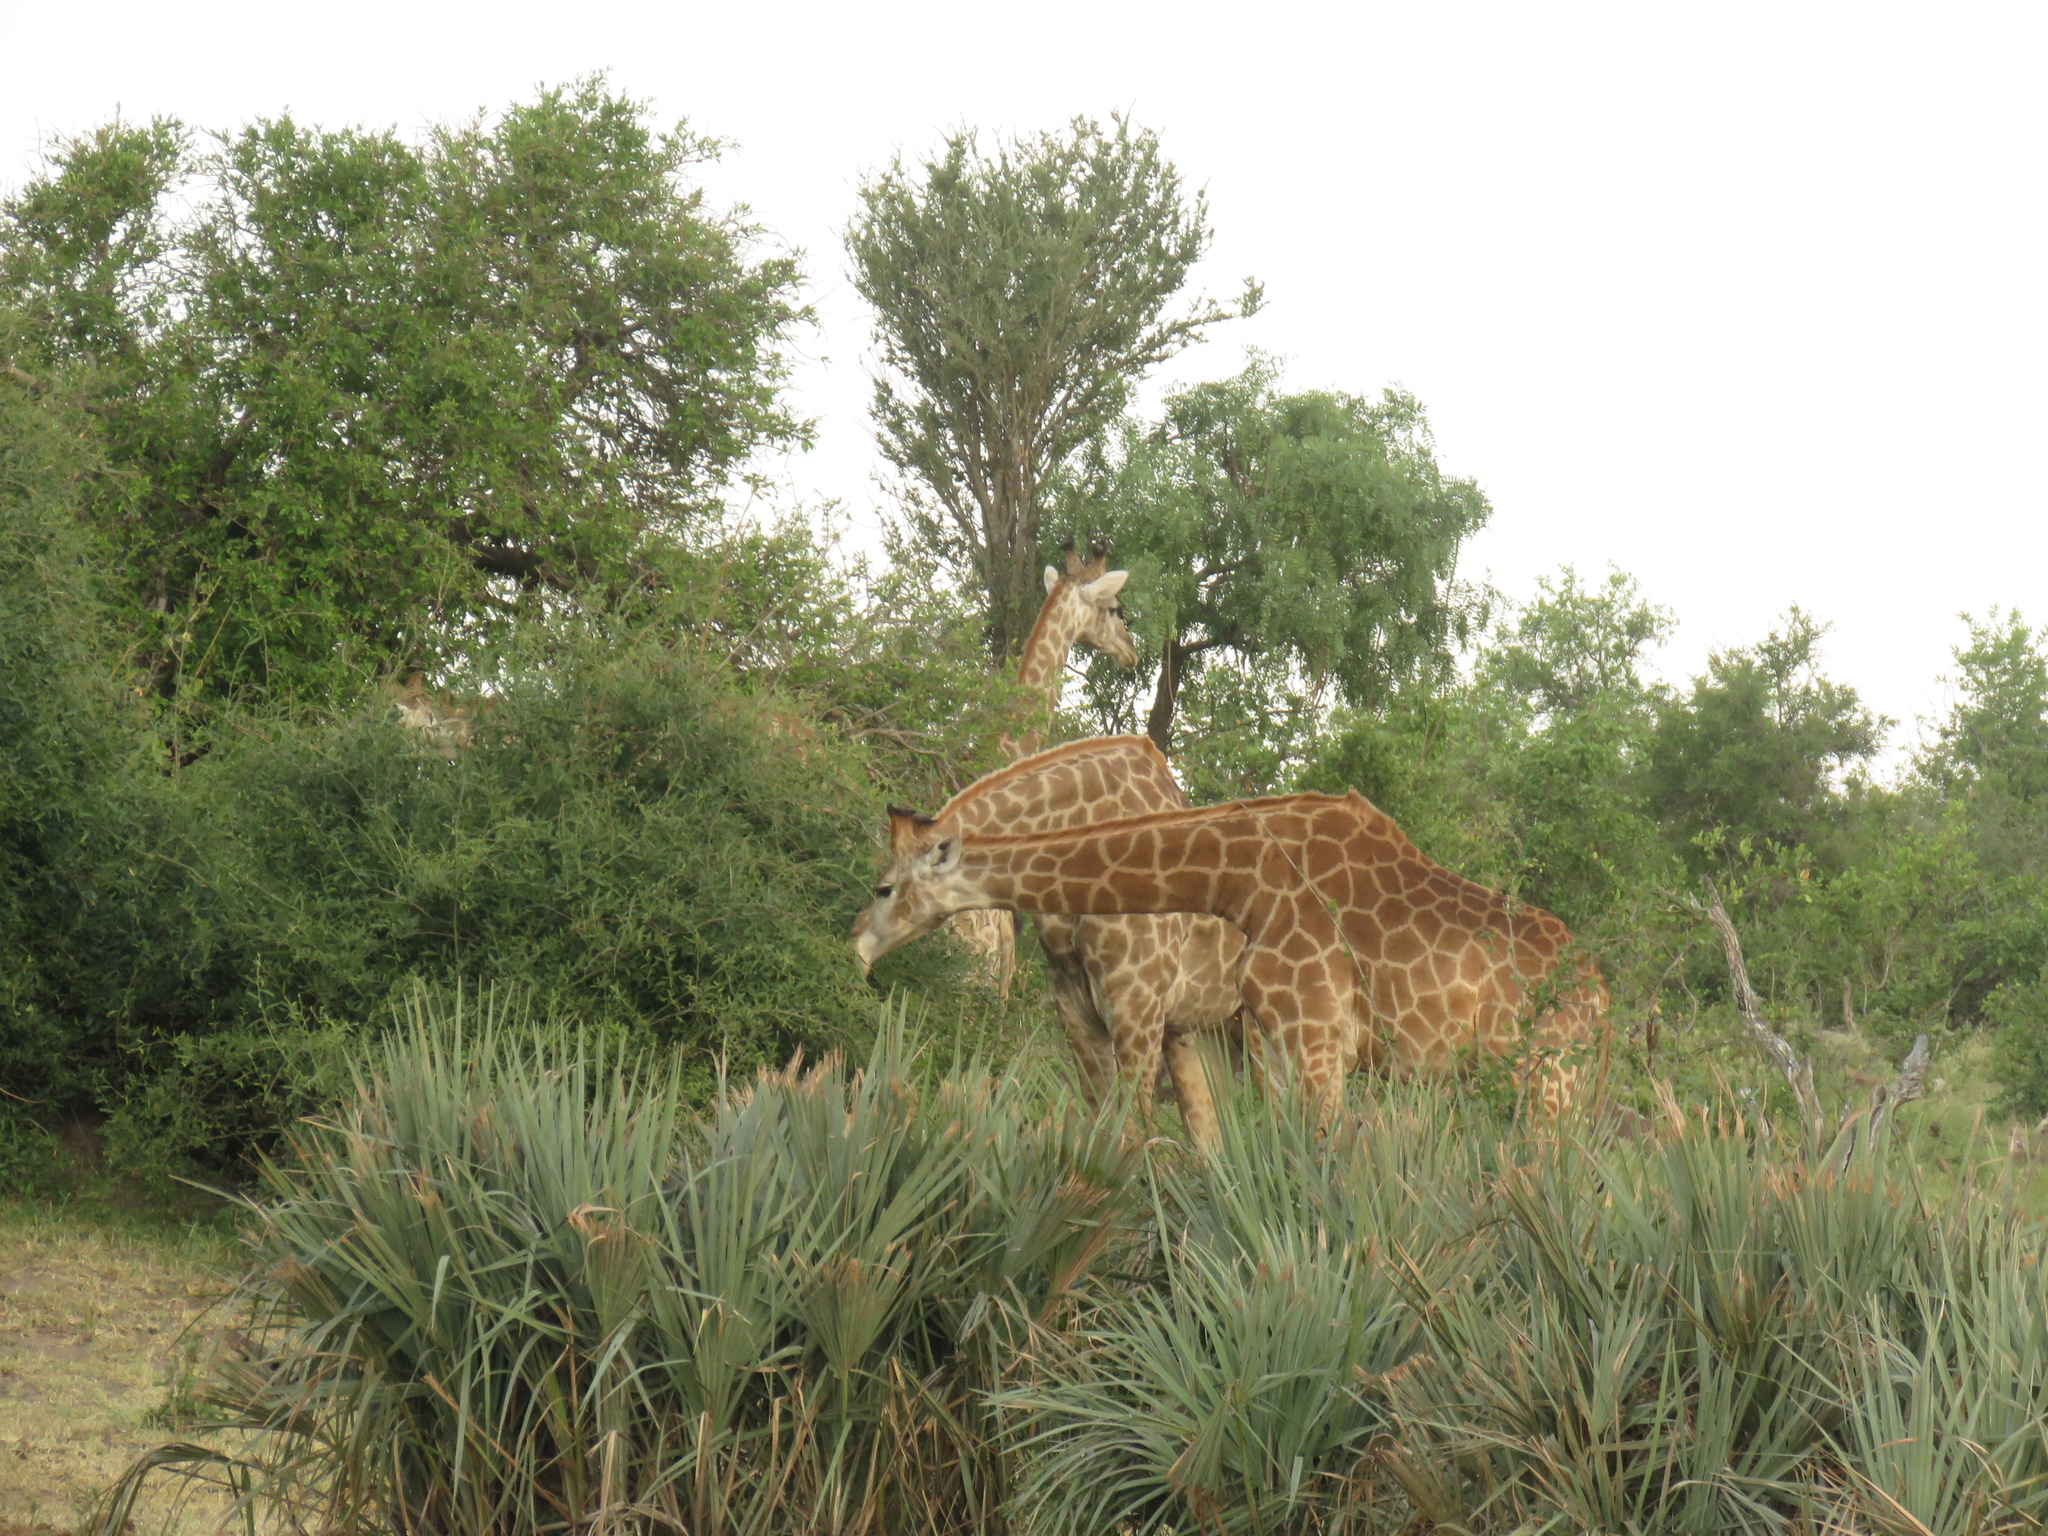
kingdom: Plantae
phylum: Tracheophyta
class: Liliopsida
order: Arecales
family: Arecaceae
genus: Hyphaene
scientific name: Hyphaene petersiana
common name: African ivory nut palm
